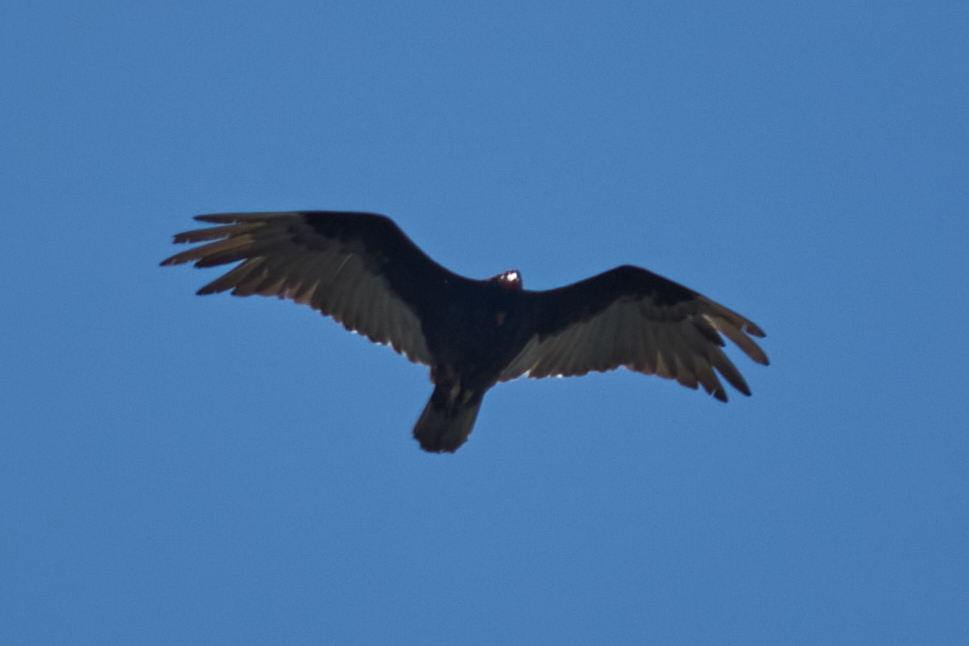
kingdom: Animalia
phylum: Chordata
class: Aves
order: Accipitriformes
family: Cathartidae
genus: Cathartes
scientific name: Cathartes aura
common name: Turkey vulture
